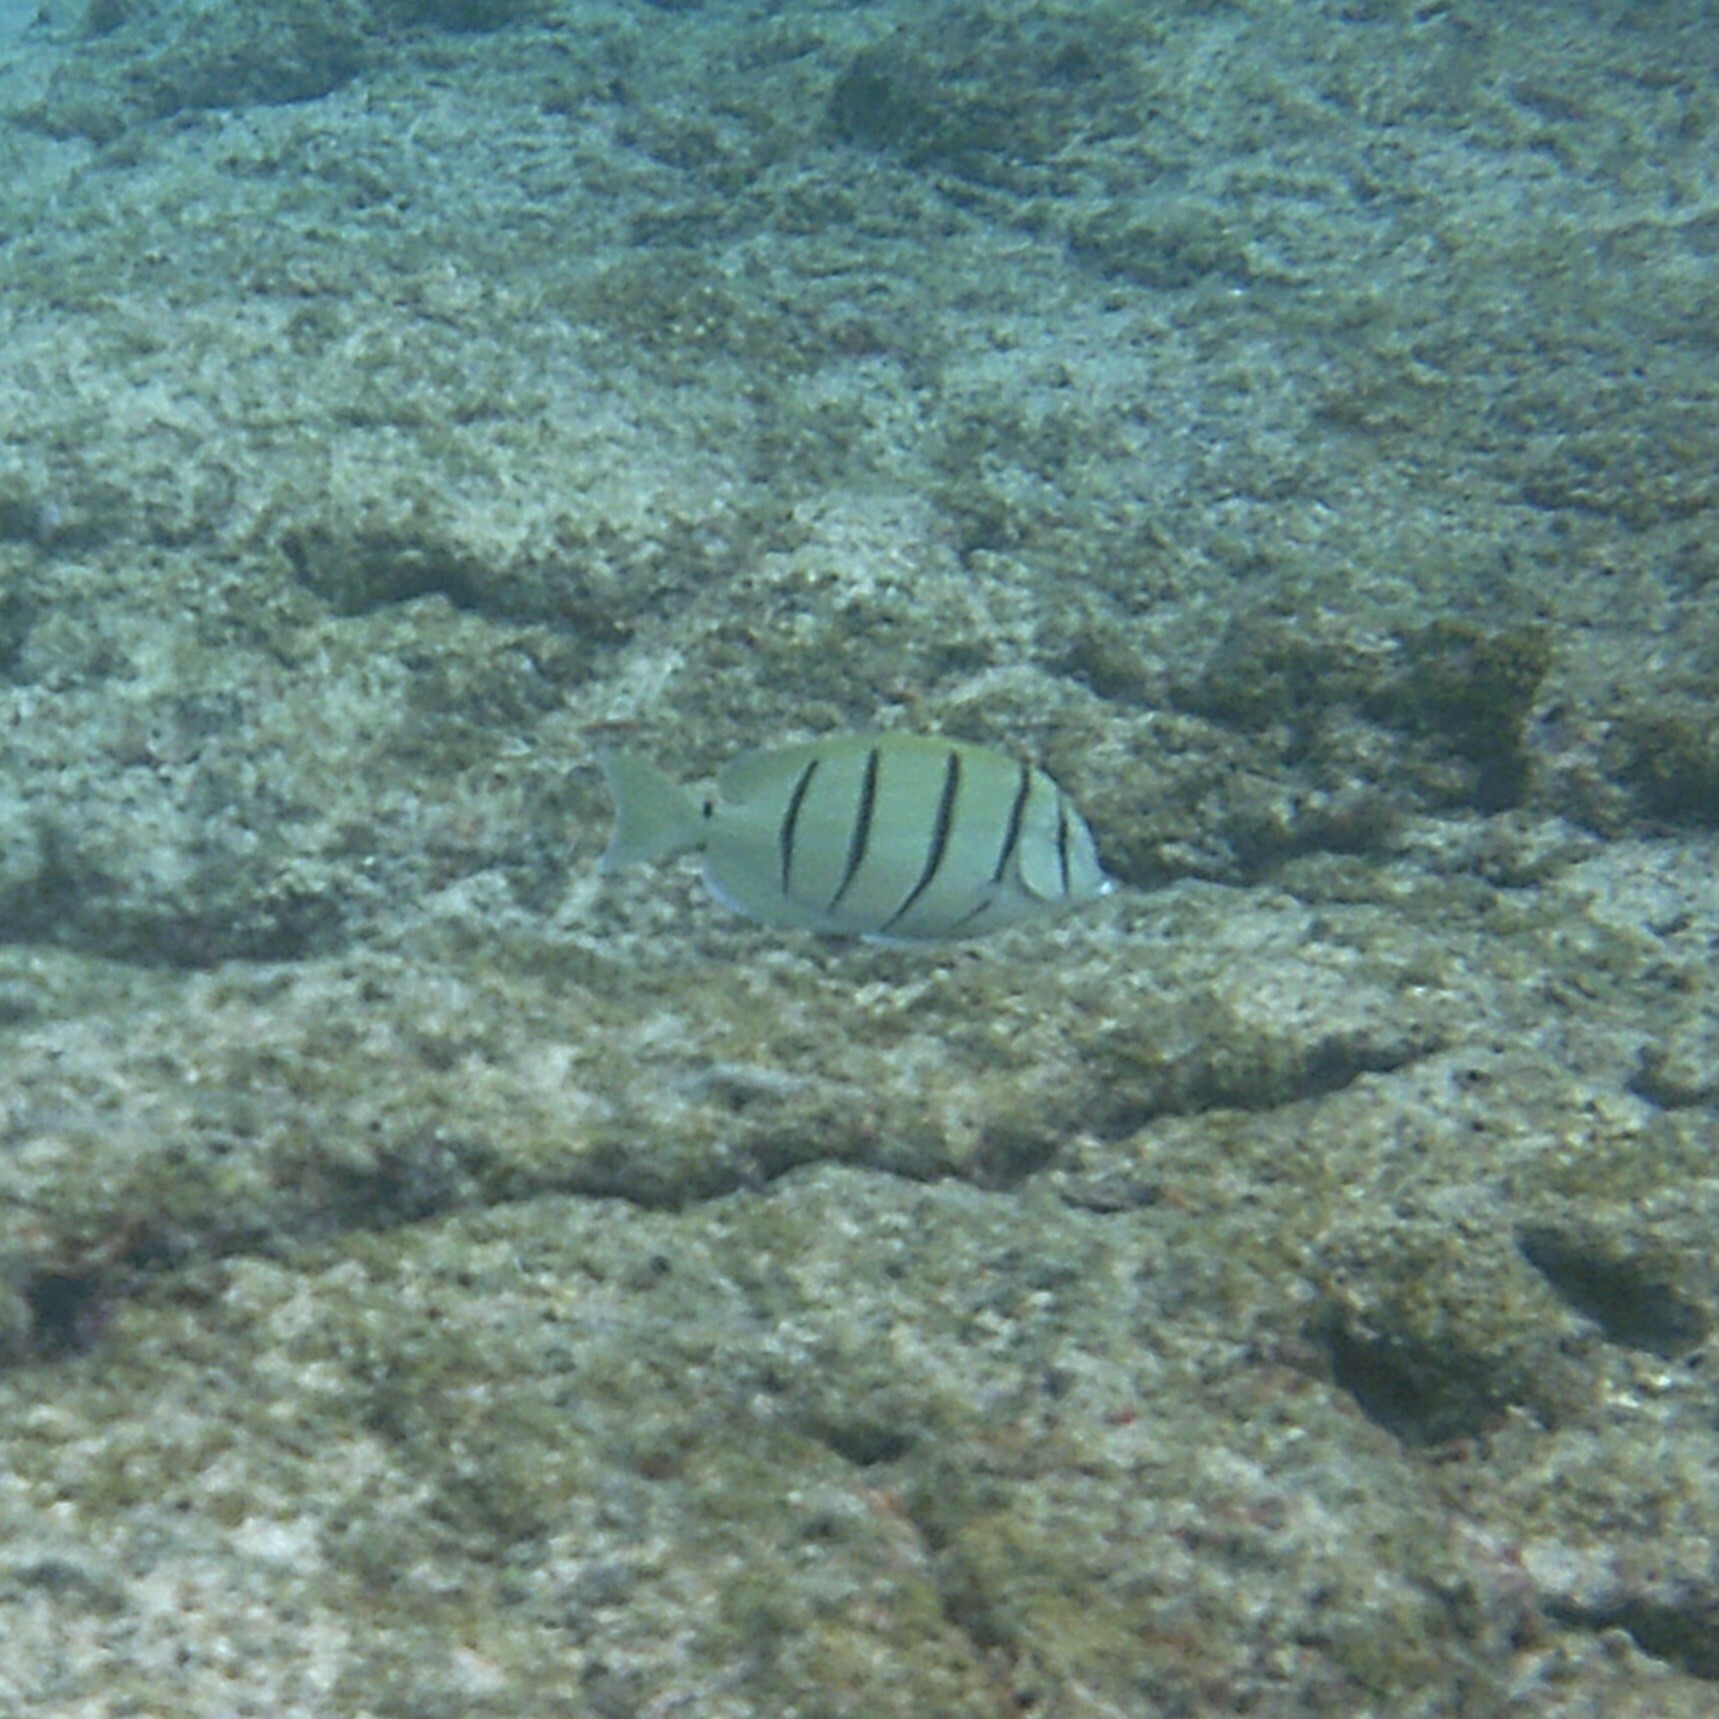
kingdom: Animalia
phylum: Chordata
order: Perciformes
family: Acanthuridae
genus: Acanthurus
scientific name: Acanthurus triostegus
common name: Convict surgeonfish
